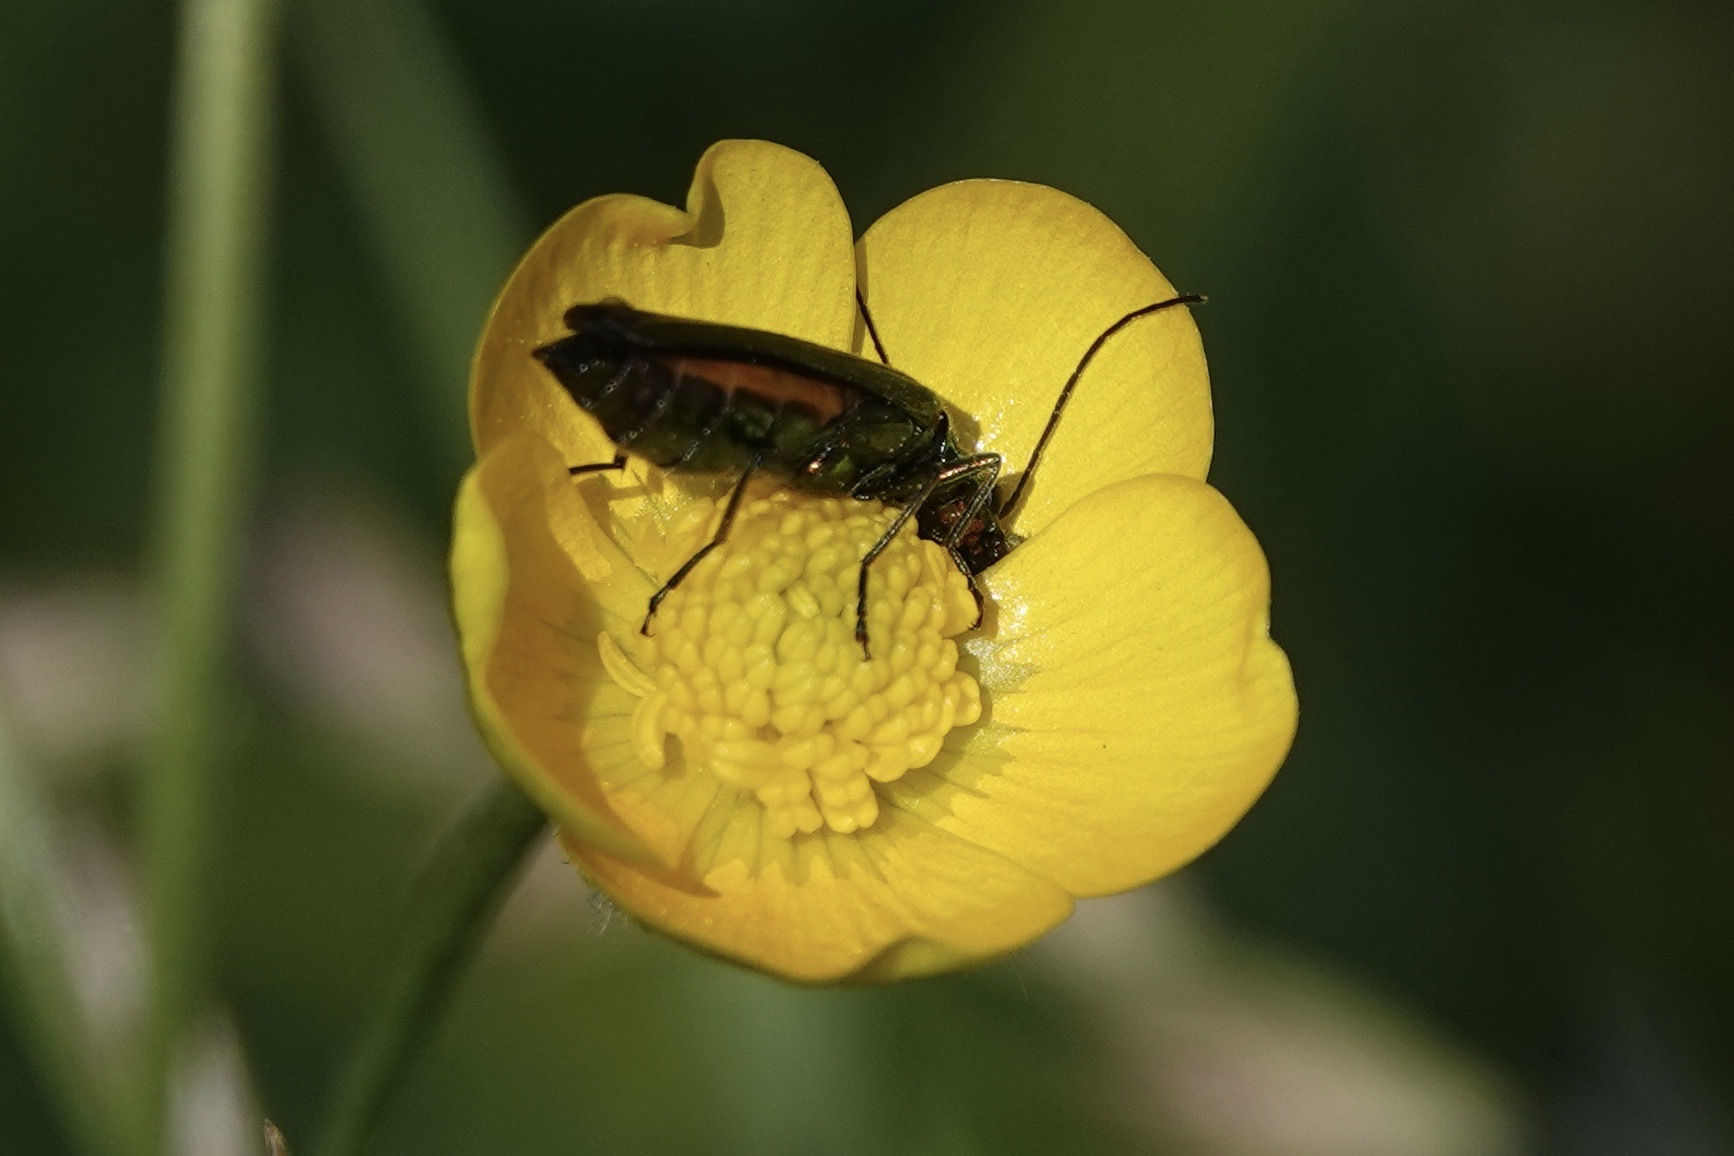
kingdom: Animalia
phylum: Arthropoda
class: Insecta
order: Coleoptera
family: Oedemeridae
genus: Oedemera
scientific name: Oedemera nobilis
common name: Swollen-thighed beetle
